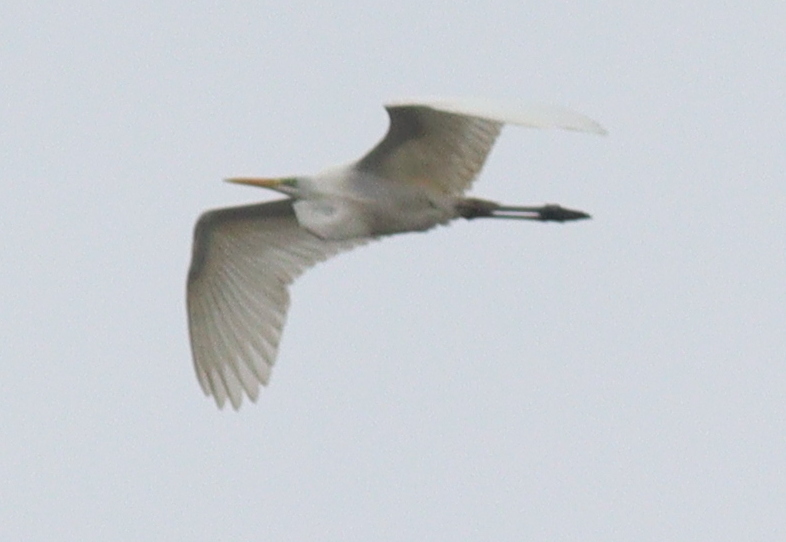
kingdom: Animalia
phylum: Chordata
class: Aves
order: Pelecaniformes
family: Ardeidae
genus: Ardea
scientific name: Ardea alba
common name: Great egret
